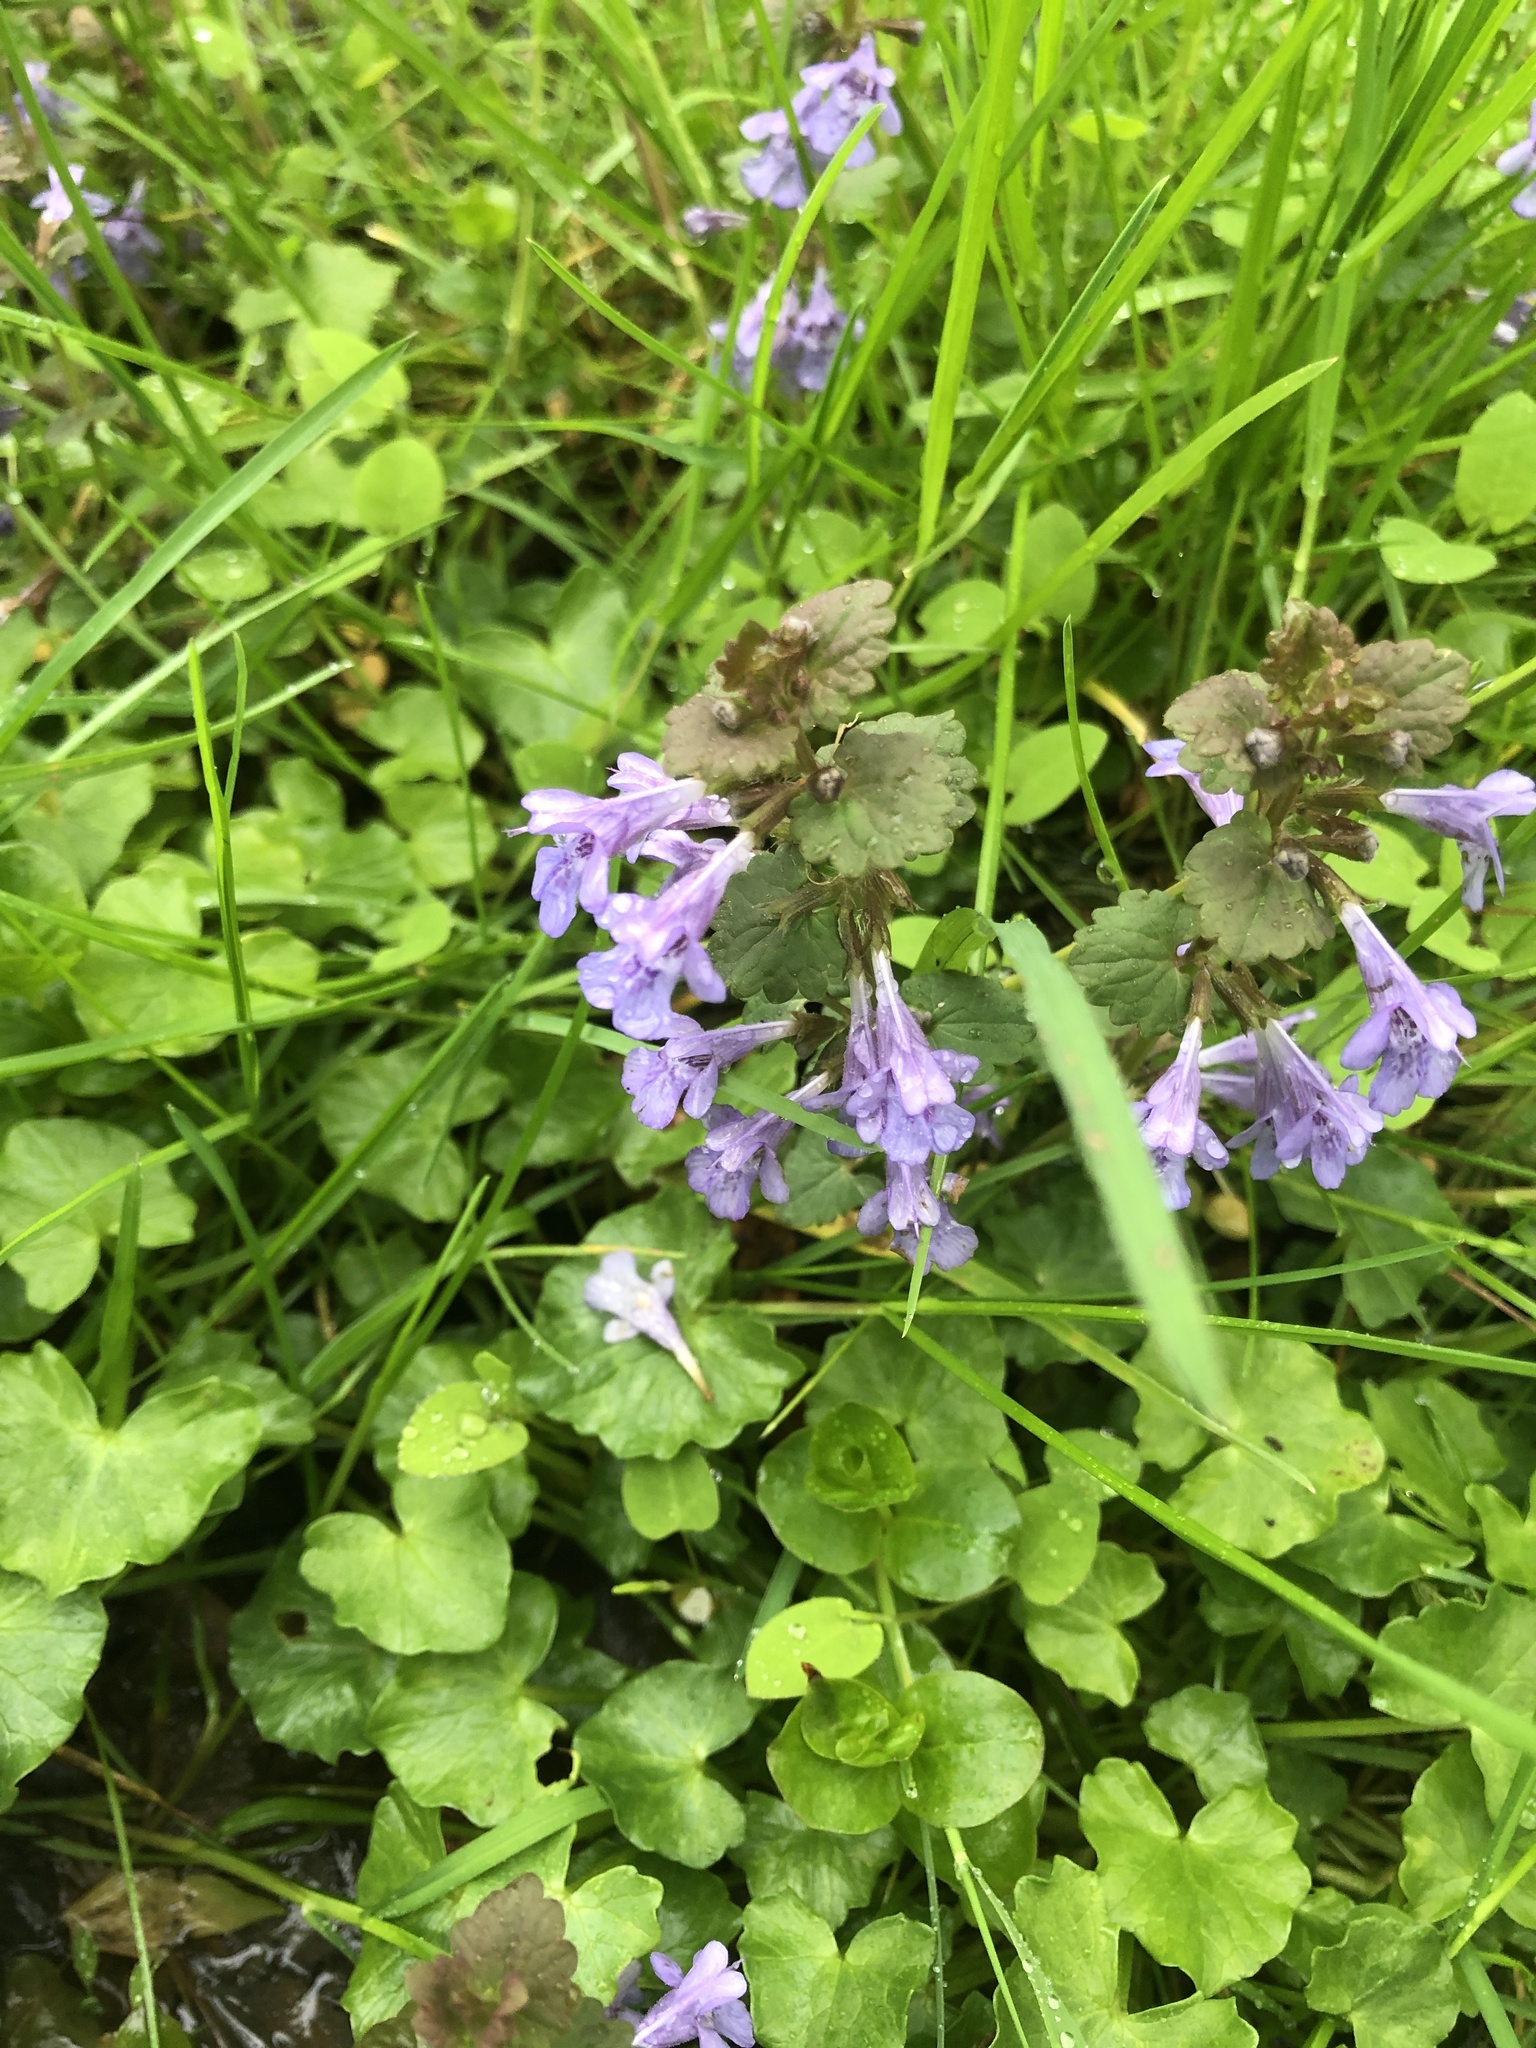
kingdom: Plantae
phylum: Tracheophyta
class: Magnoliopsida
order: Lamiales
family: Lamiaceae
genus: Glechoma
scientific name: Glechoma hederacea
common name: Ground ivy
